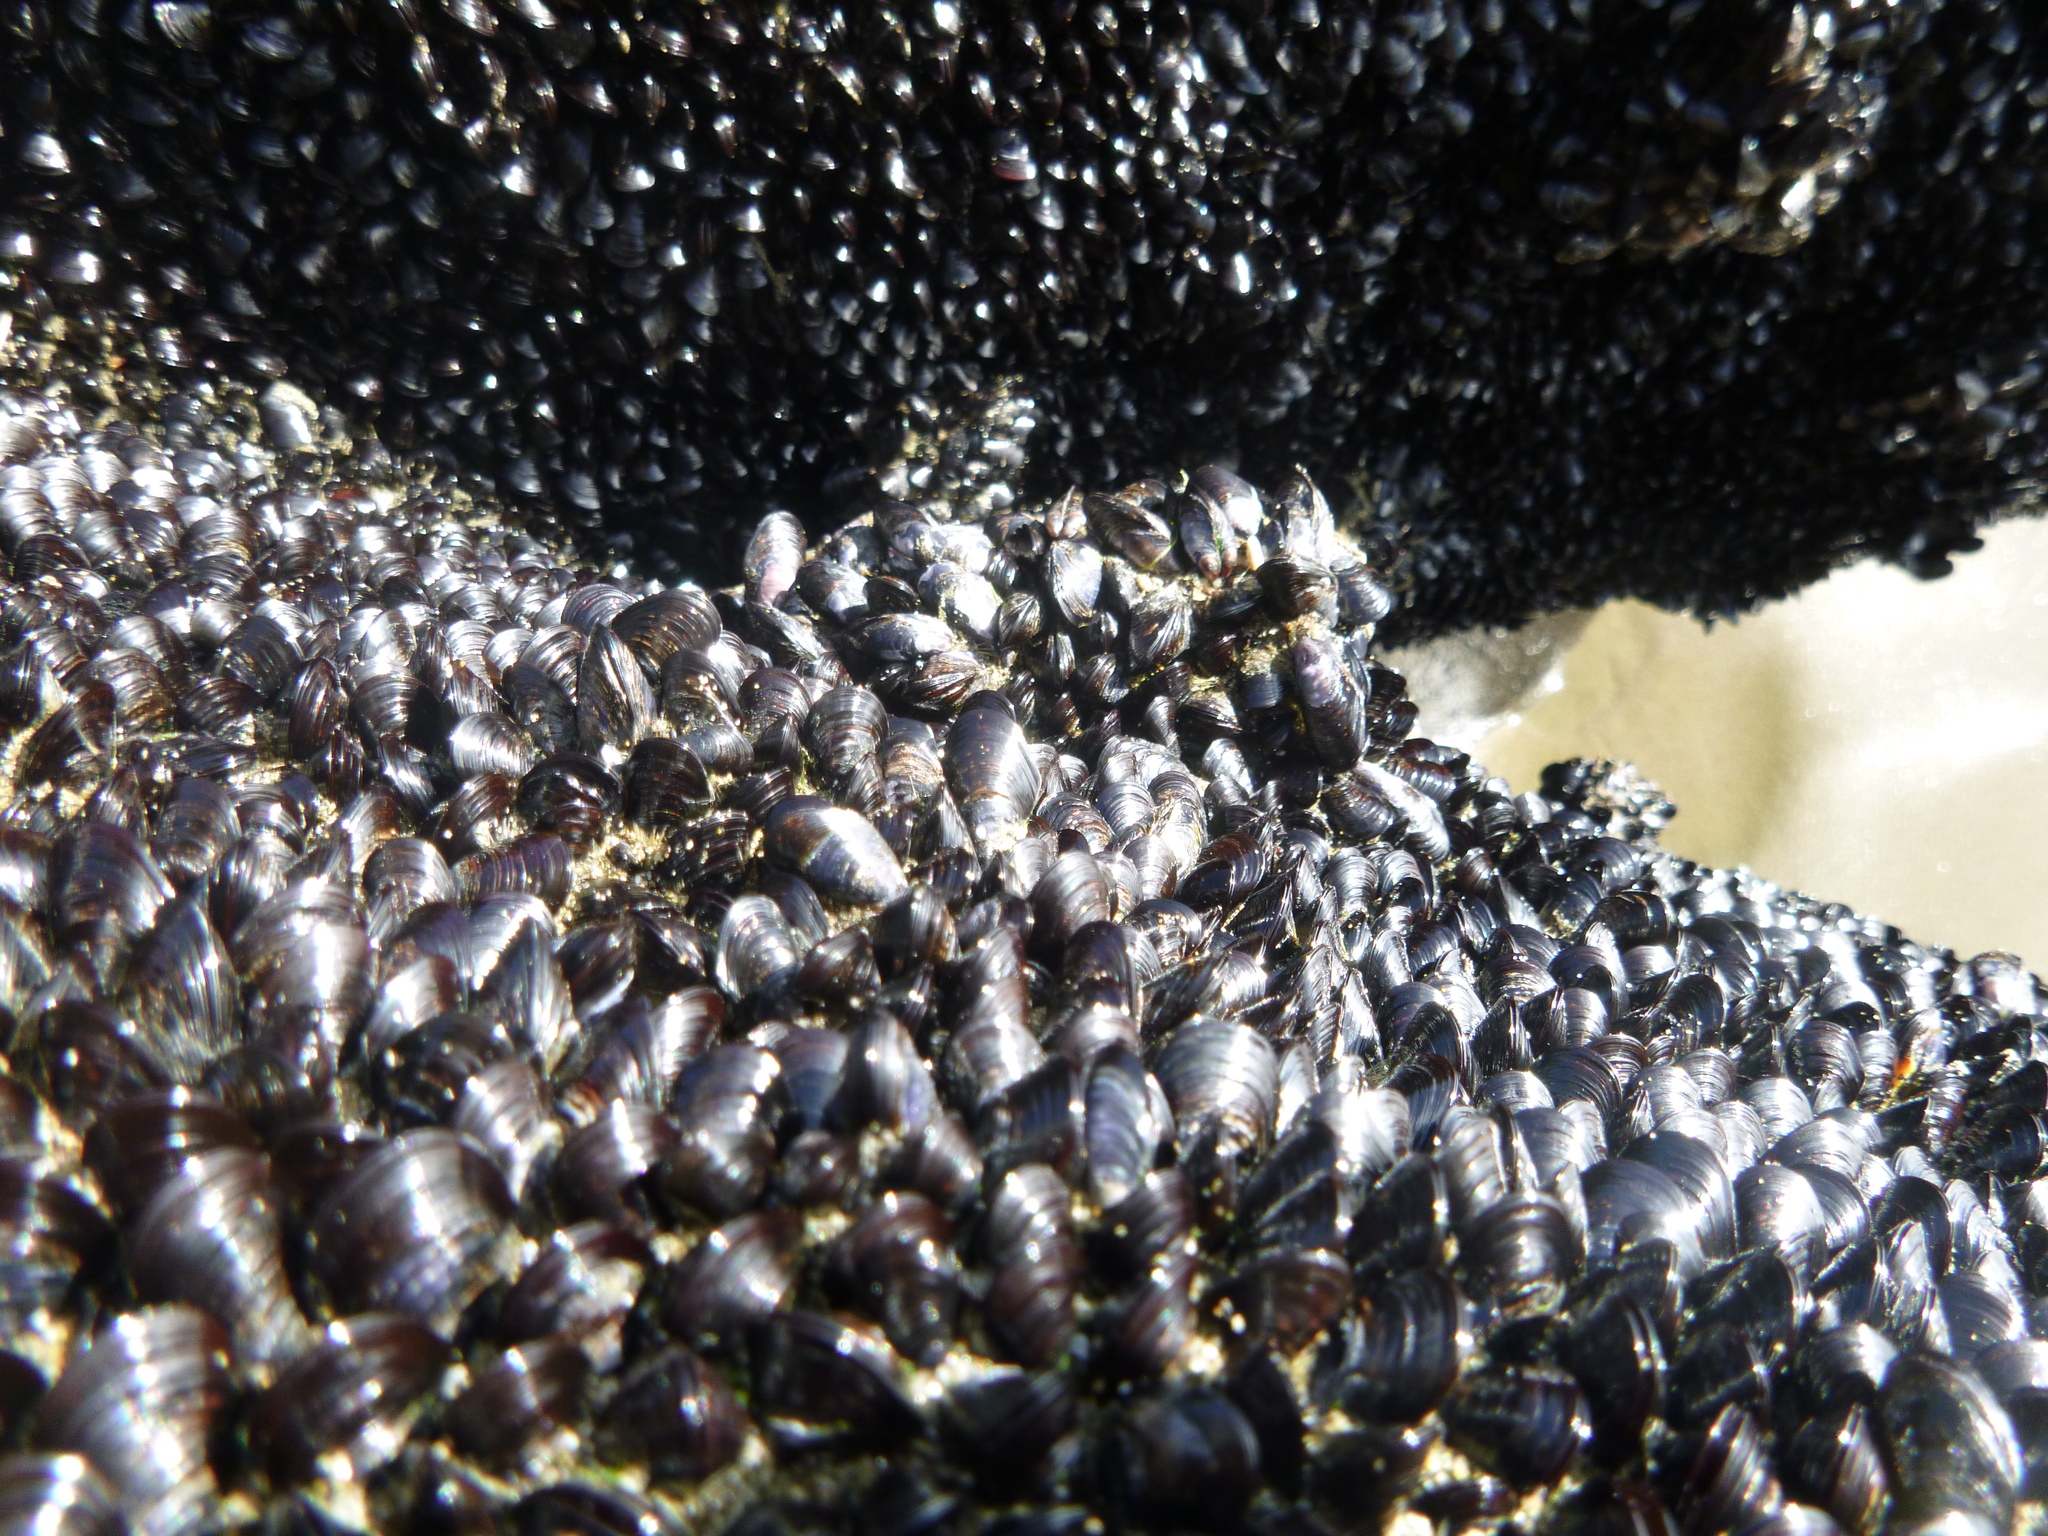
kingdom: Animalia
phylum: Mollusca
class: Bivalvia
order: Mytilida
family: Mytilidae
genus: Xenostrobus
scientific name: Xenostrobus neozelanicus
